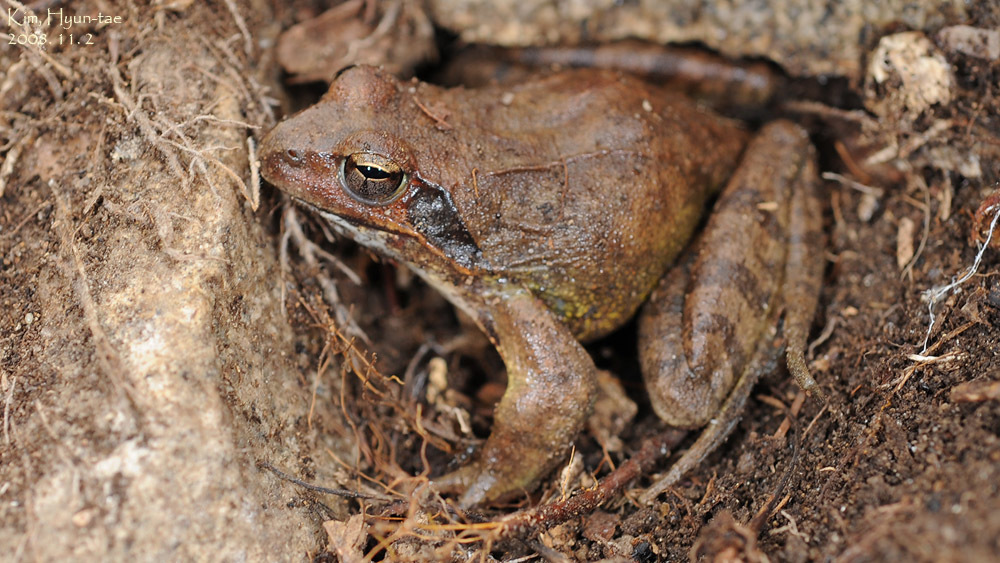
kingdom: Animalia
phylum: Chordata
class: Amphibia
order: Anura
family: Ranidae
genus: Rana
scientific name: Rana uenoi
